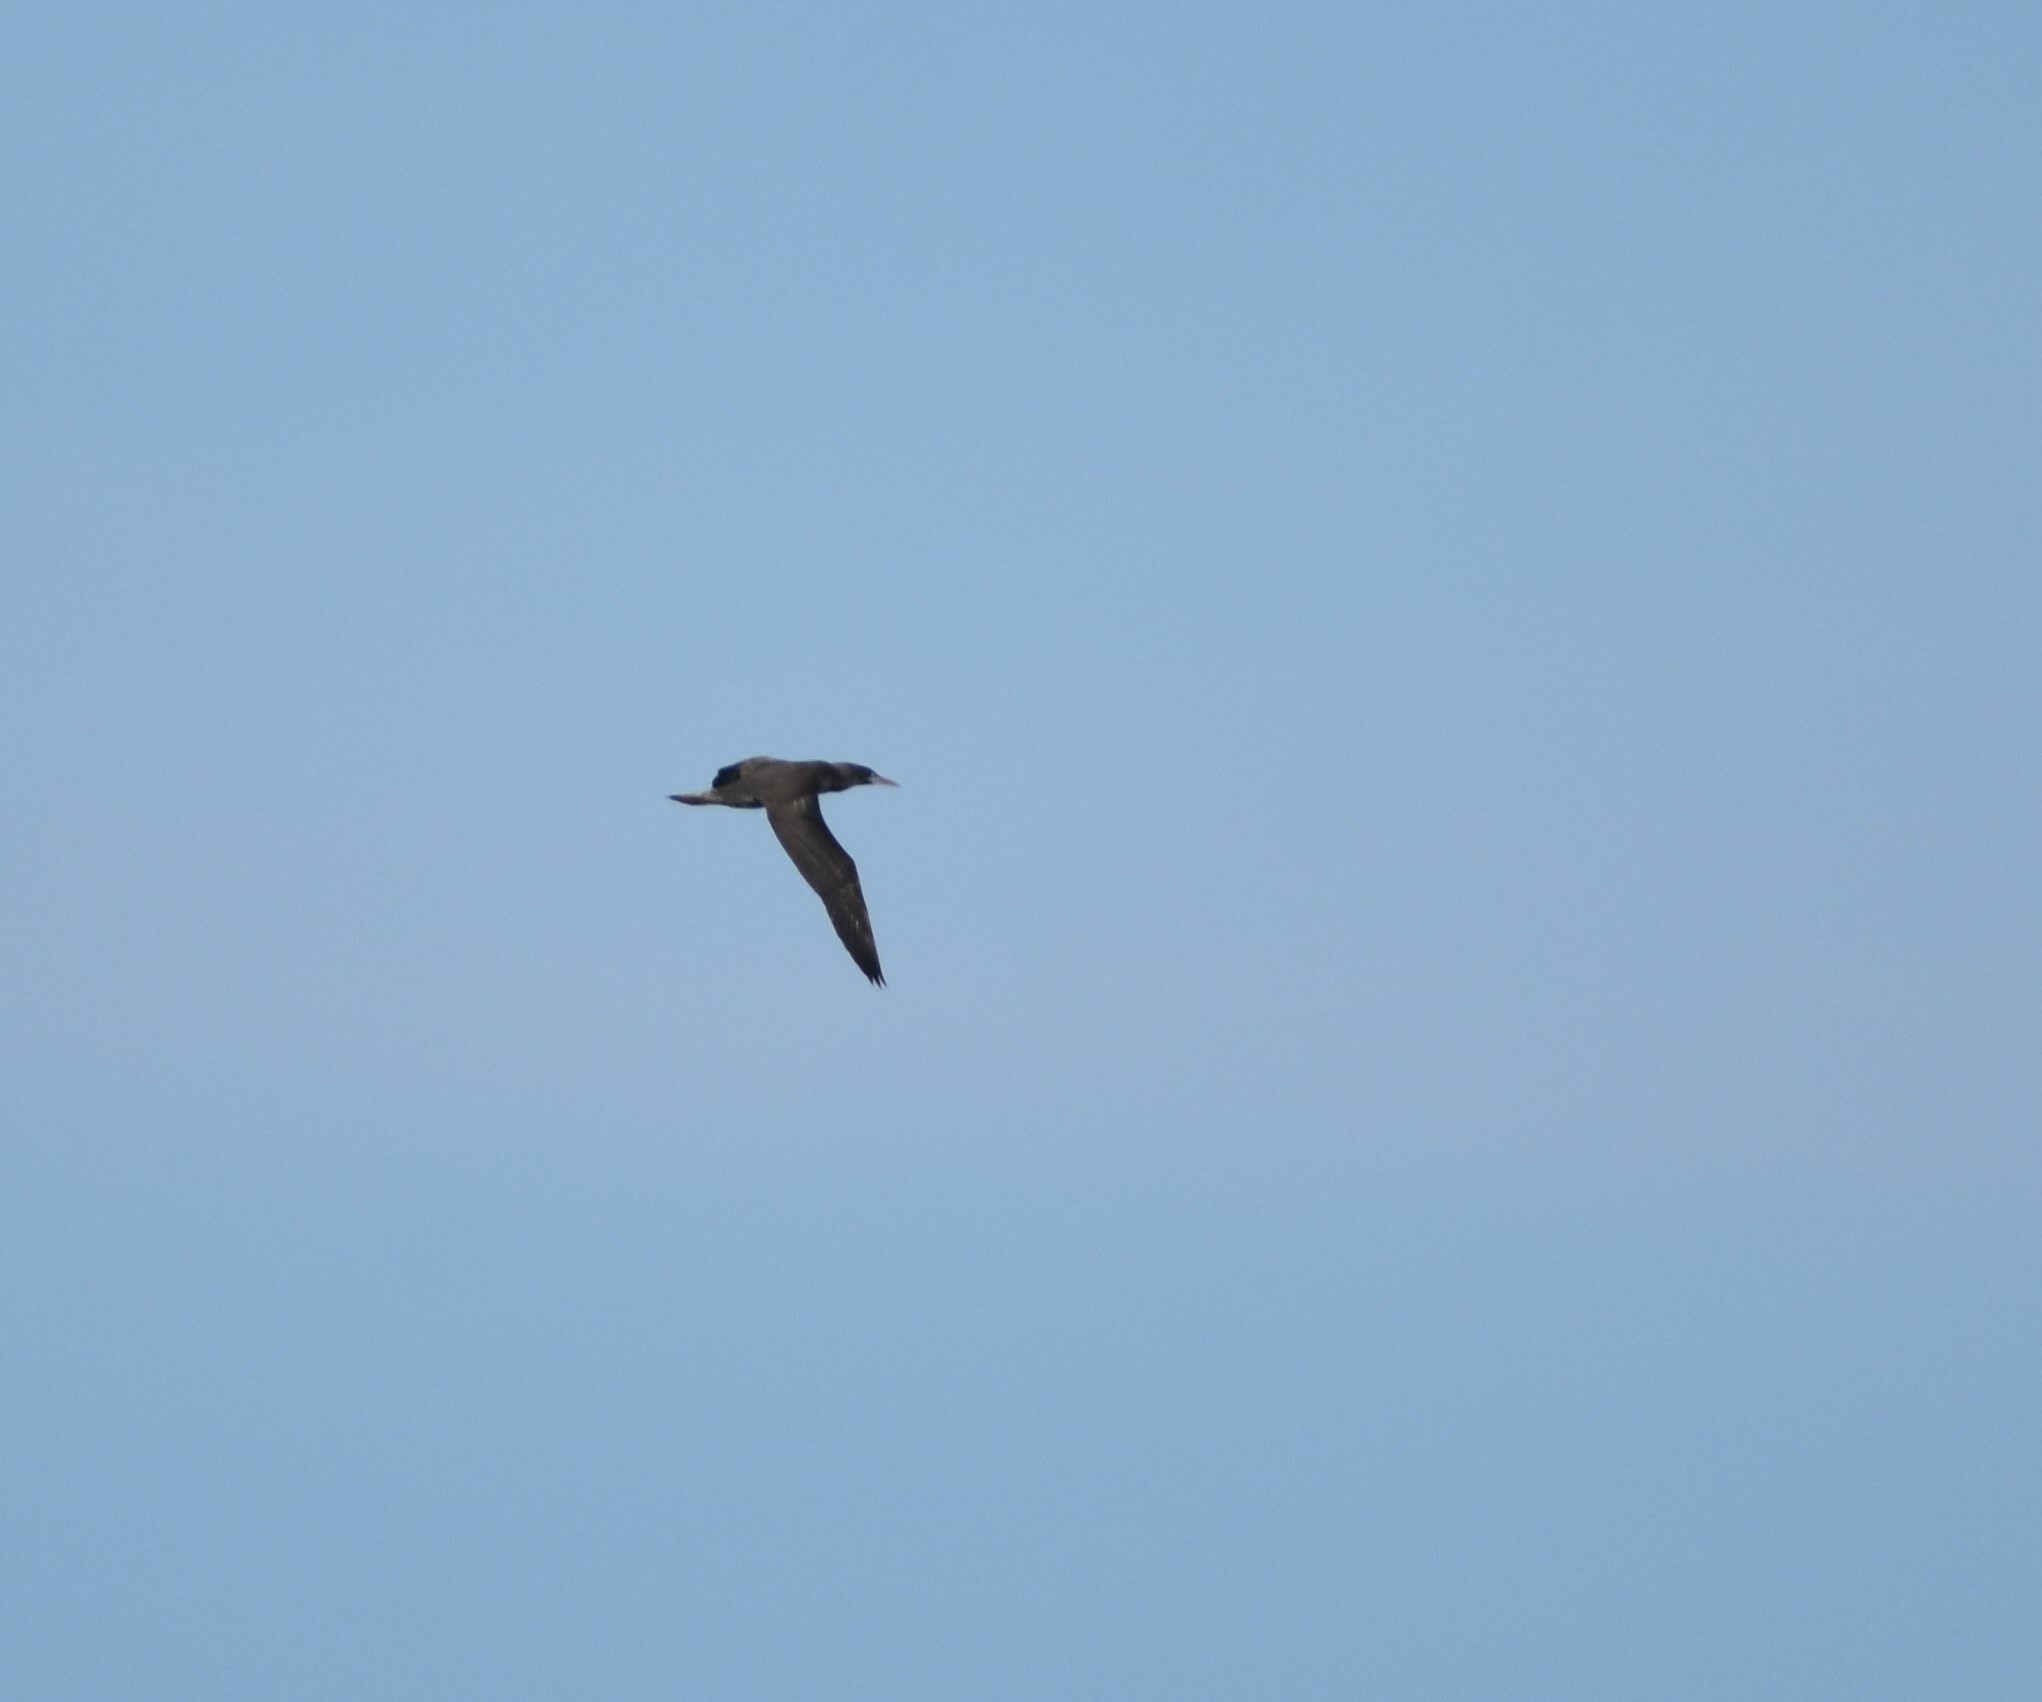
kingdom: Animalia
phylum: Chordata
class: Aves
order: Suliformes
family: Sulidae
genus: Morus
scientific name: Morus capensis
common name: Cape gannet
